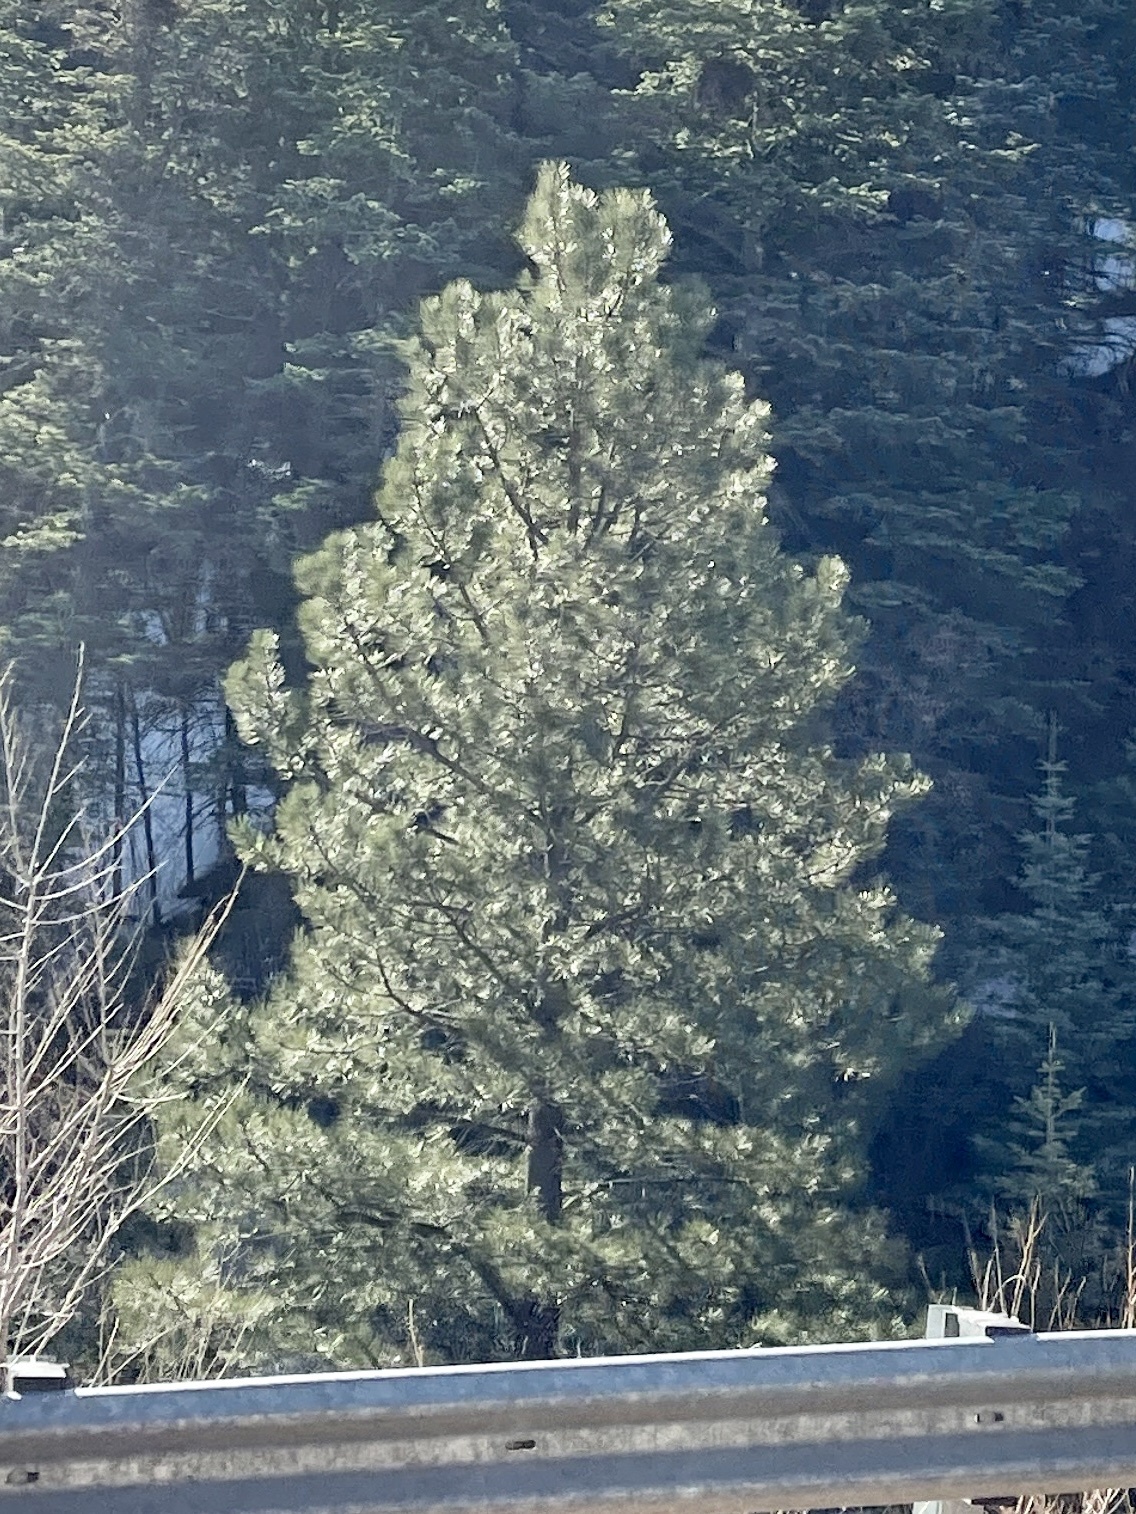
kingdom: Plantae
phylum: Tracheophyta
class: Pinopsida
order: Pinales
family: Pinaceae
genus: Pinus
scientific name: Pinus ponderosa
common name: Western yellow-pine
